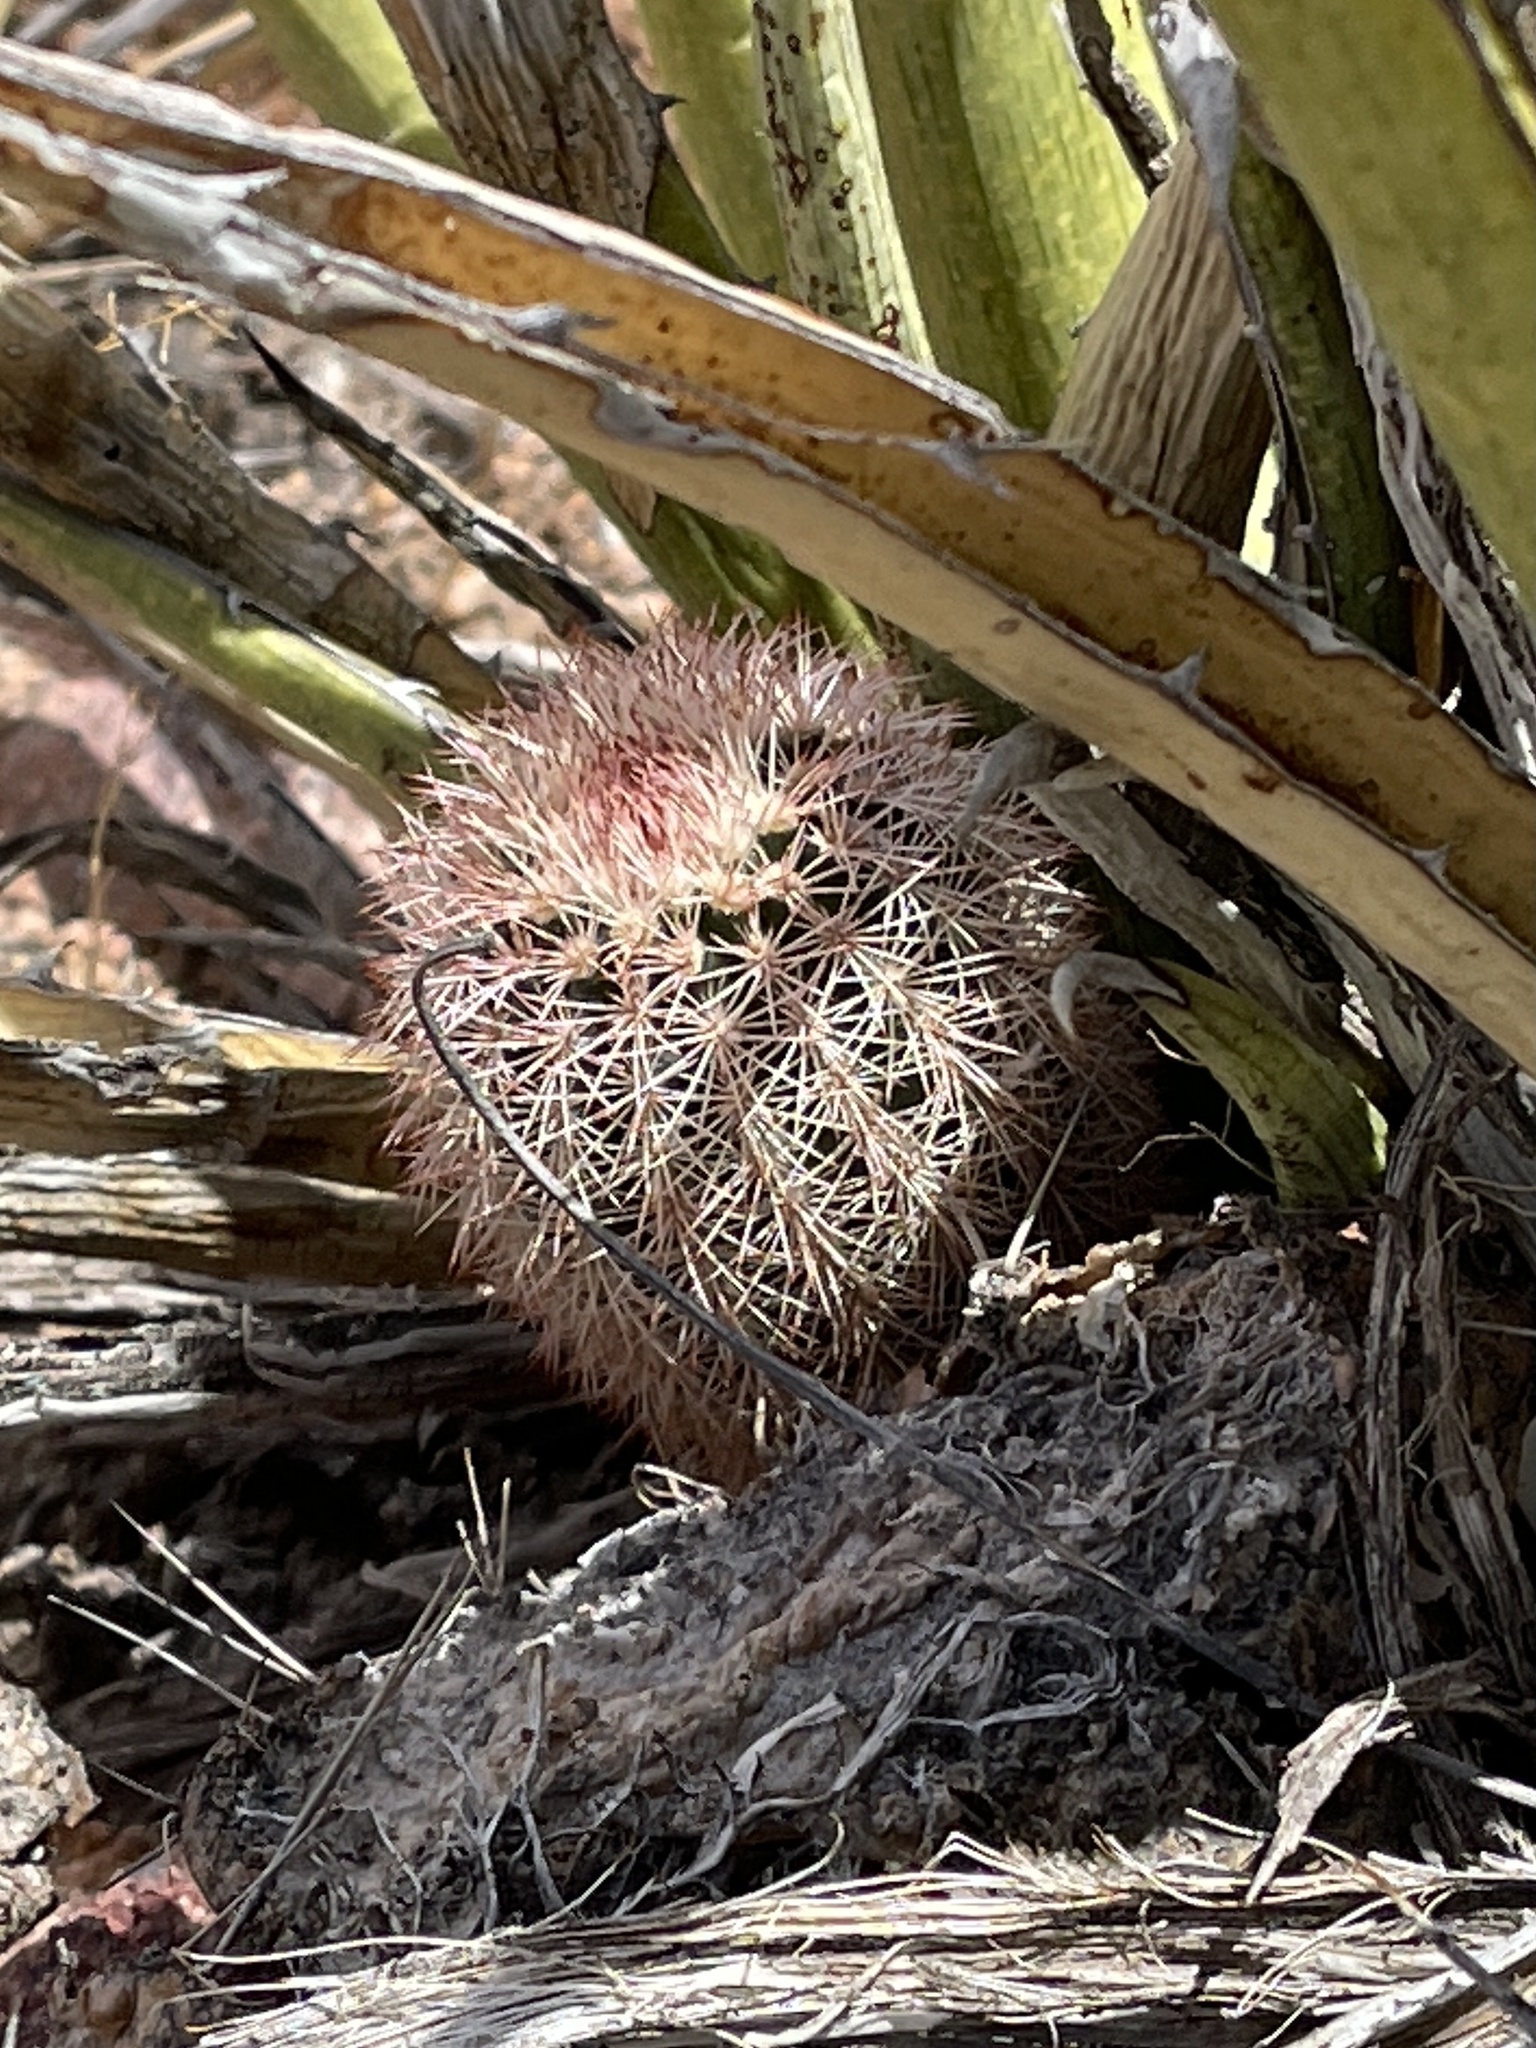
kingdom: Plantae
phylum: Tracheophyta
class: Magnoliopsida
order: Caryophyllales
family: Cactaceae
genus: Echinocereus
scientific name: Echinocereus dasyacanthus
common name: Spiny hedgehog cactus
